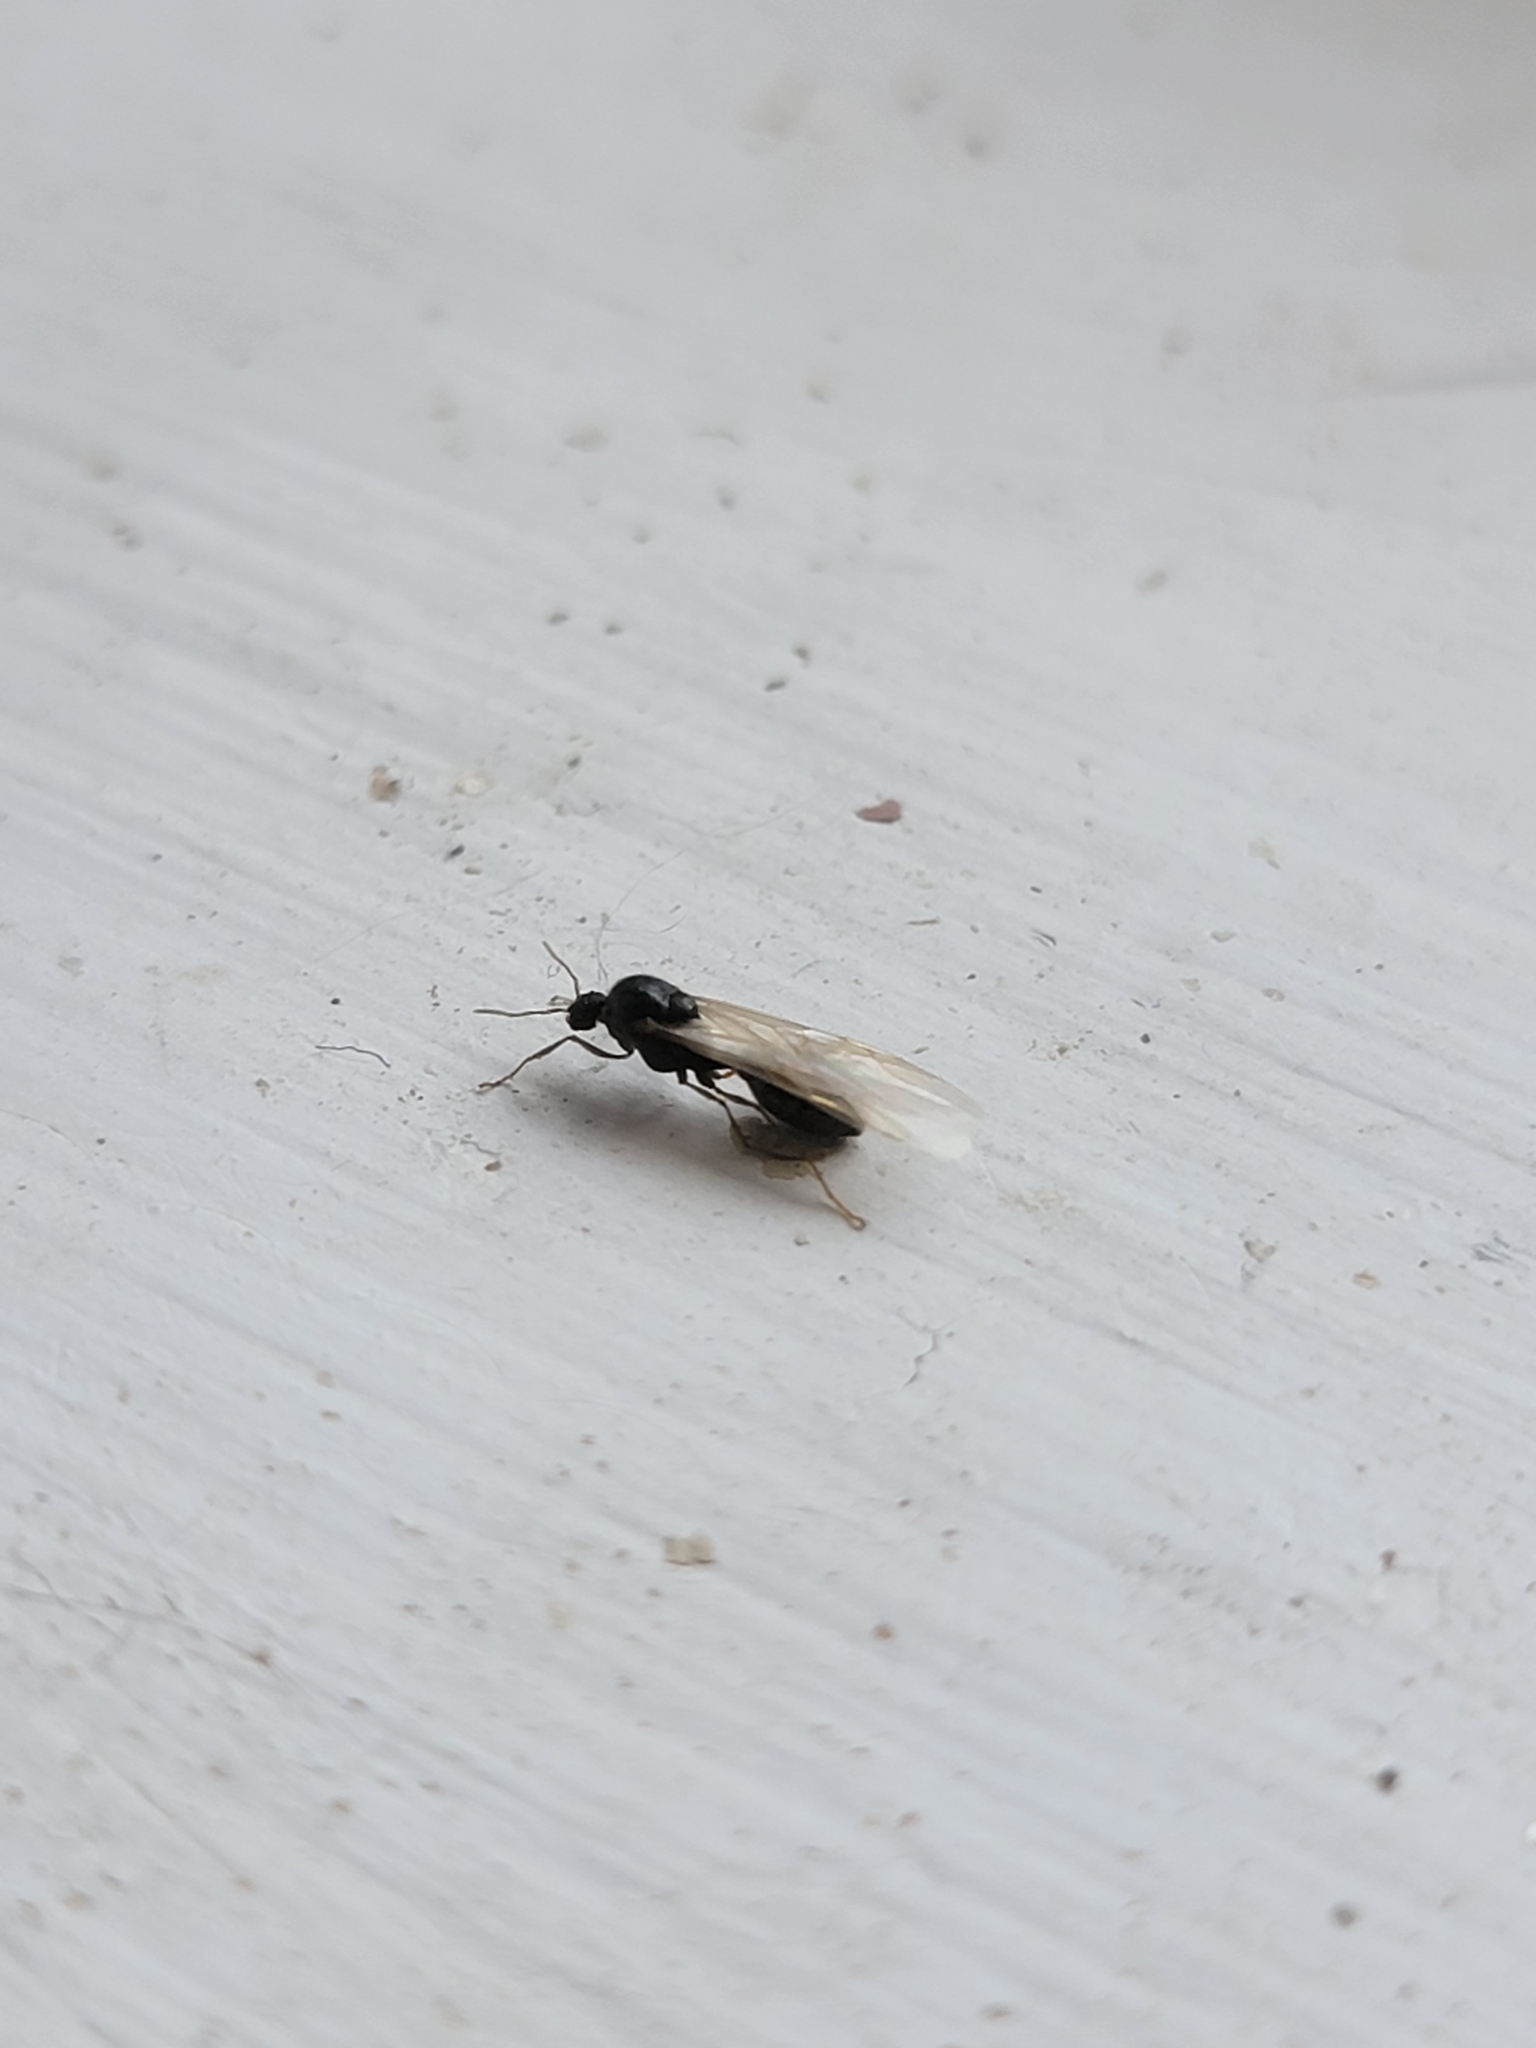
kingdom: Animalia
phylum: Arthropoda
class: Insecta
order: Hymenoptera
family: Formicidae
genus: Tetramorium
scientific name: Tetramorium immigrans
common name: Pavement ant
